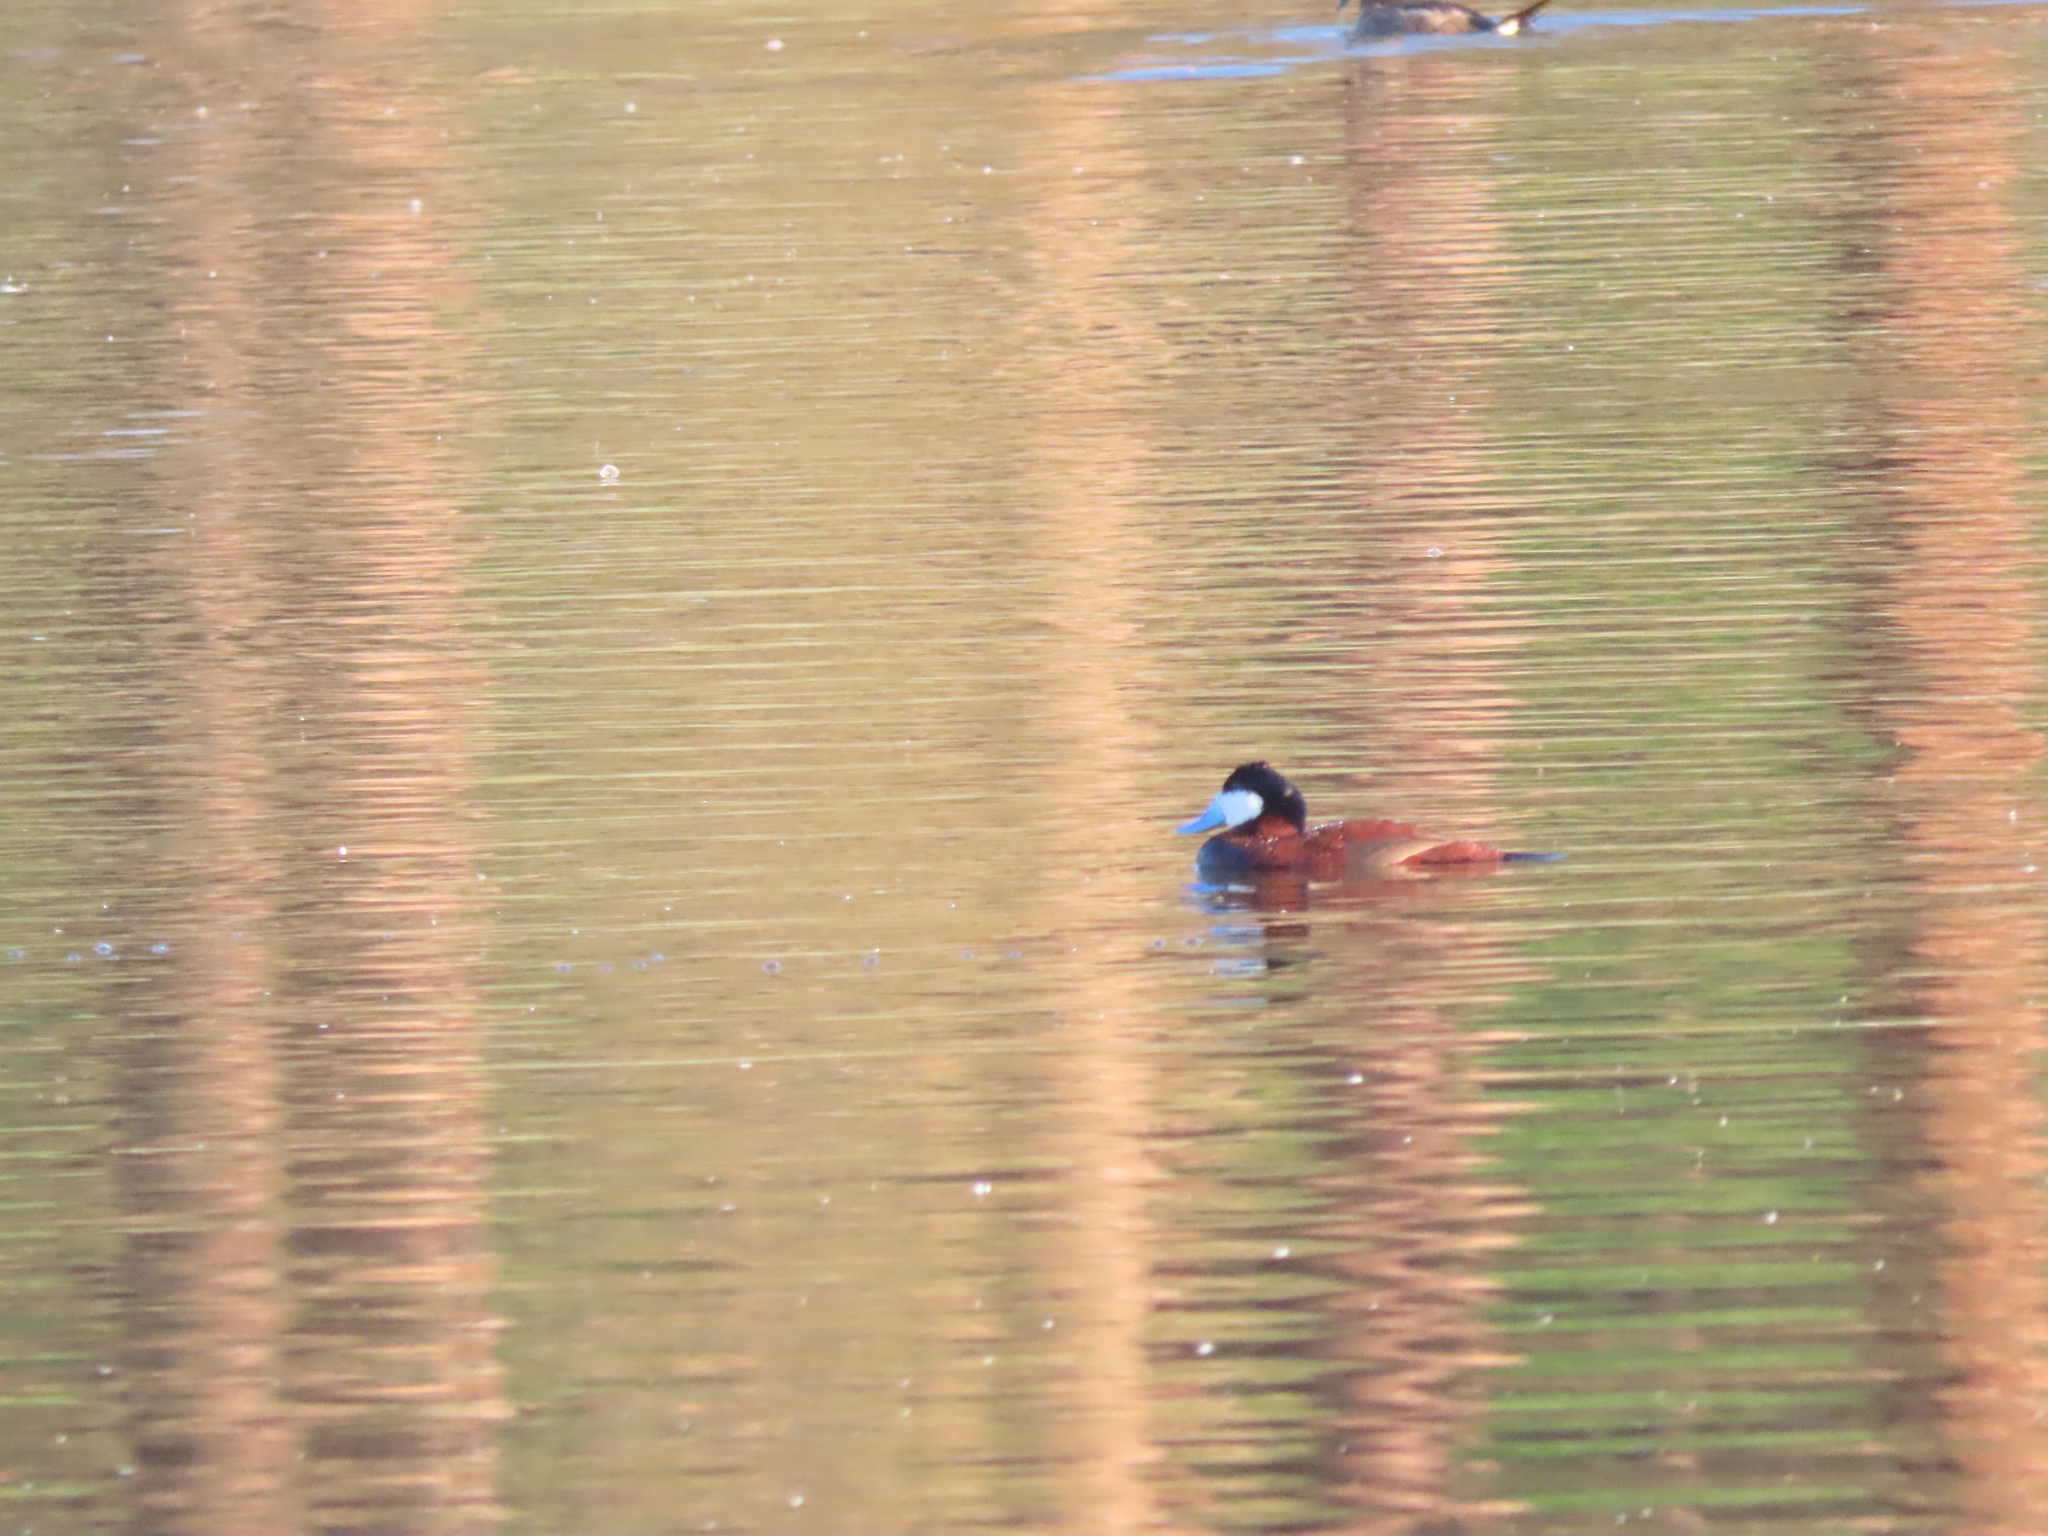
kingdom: Animalia
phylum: Chordata
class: Aves
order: Anseriformes
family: Anatidae
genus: Oxyura
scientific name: Oxyura jamaicensis
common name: Ruddy duck
